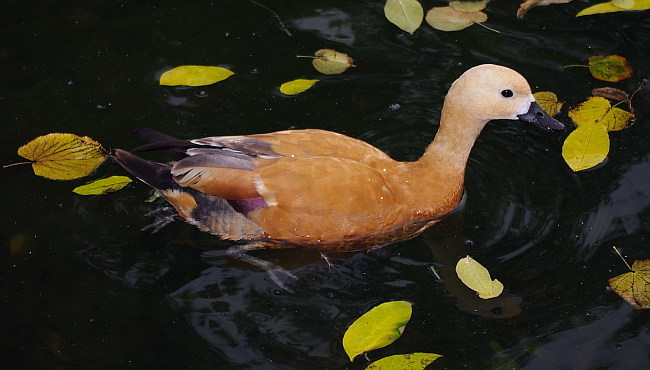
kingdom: Animalia
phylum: Chordata
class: Aves
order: Anseriformes
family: Anatidae
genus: Tadorna
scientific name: Tadorna ferruginea
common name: Ruddy shelduck
